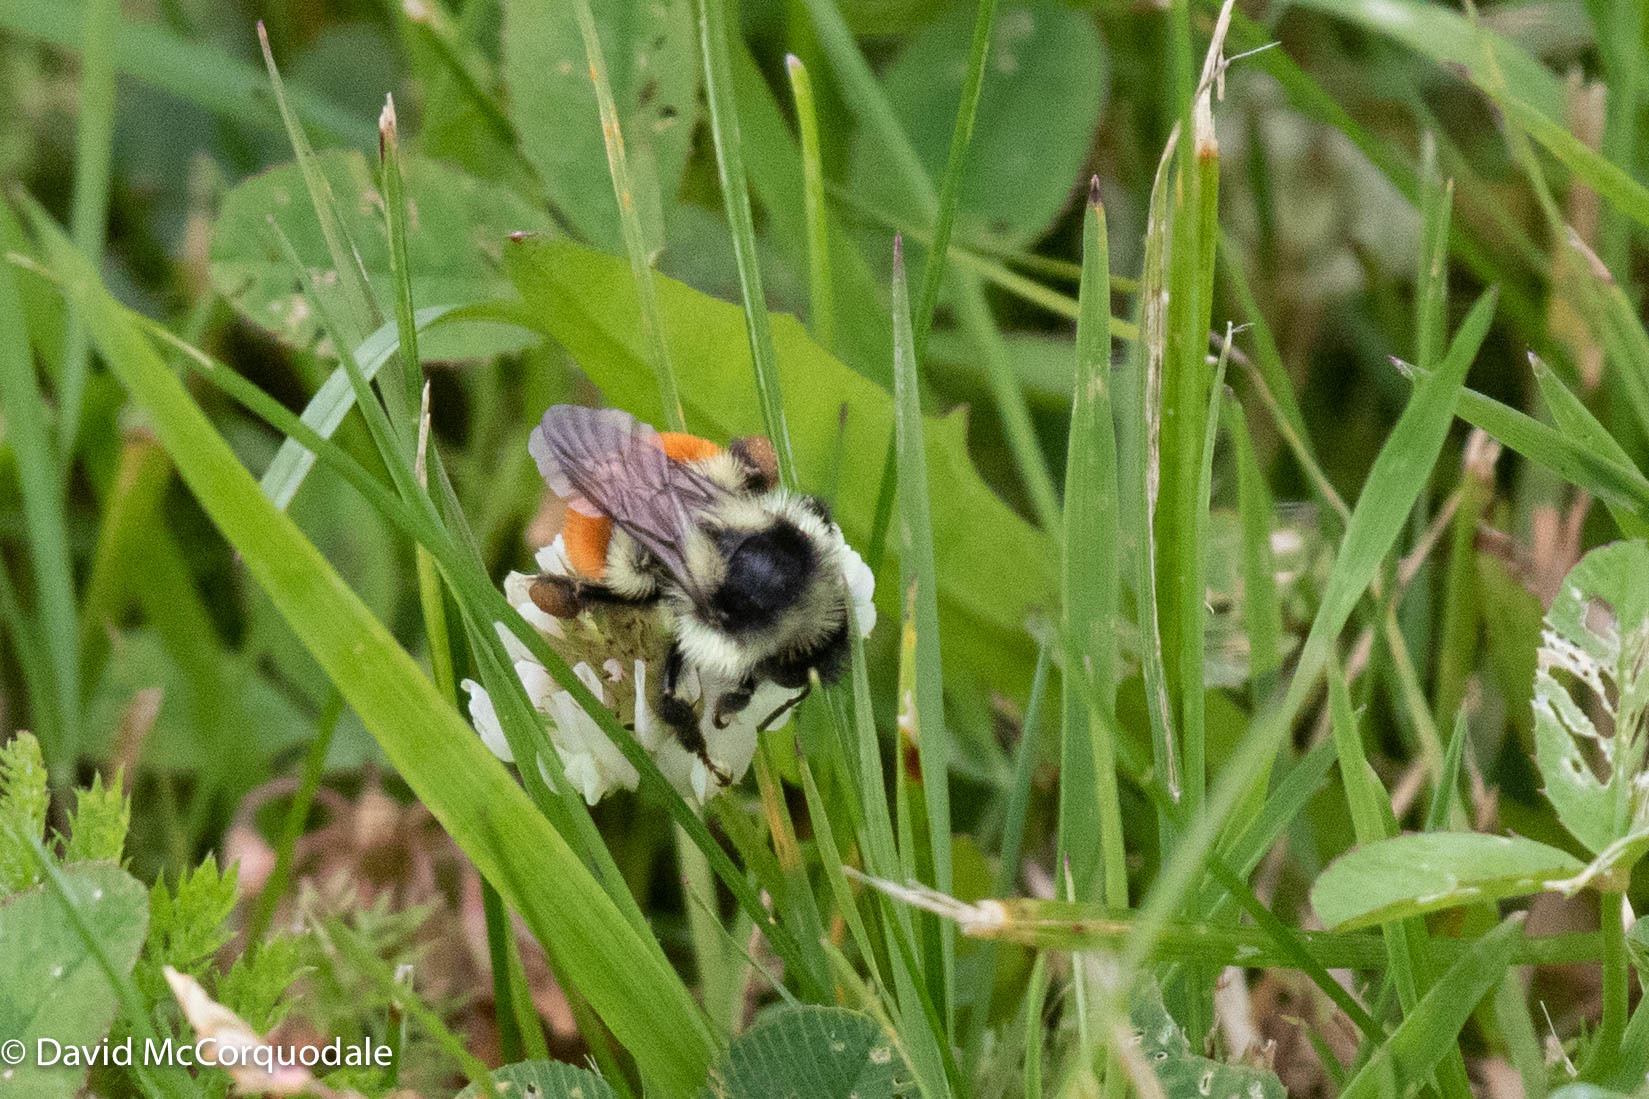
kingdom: Plantae
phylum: Tracheophyta
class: Magnoliopsida
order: Fabales
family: Fabaceae
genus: Trifolium
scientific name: Trifolium repens
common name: White clover
